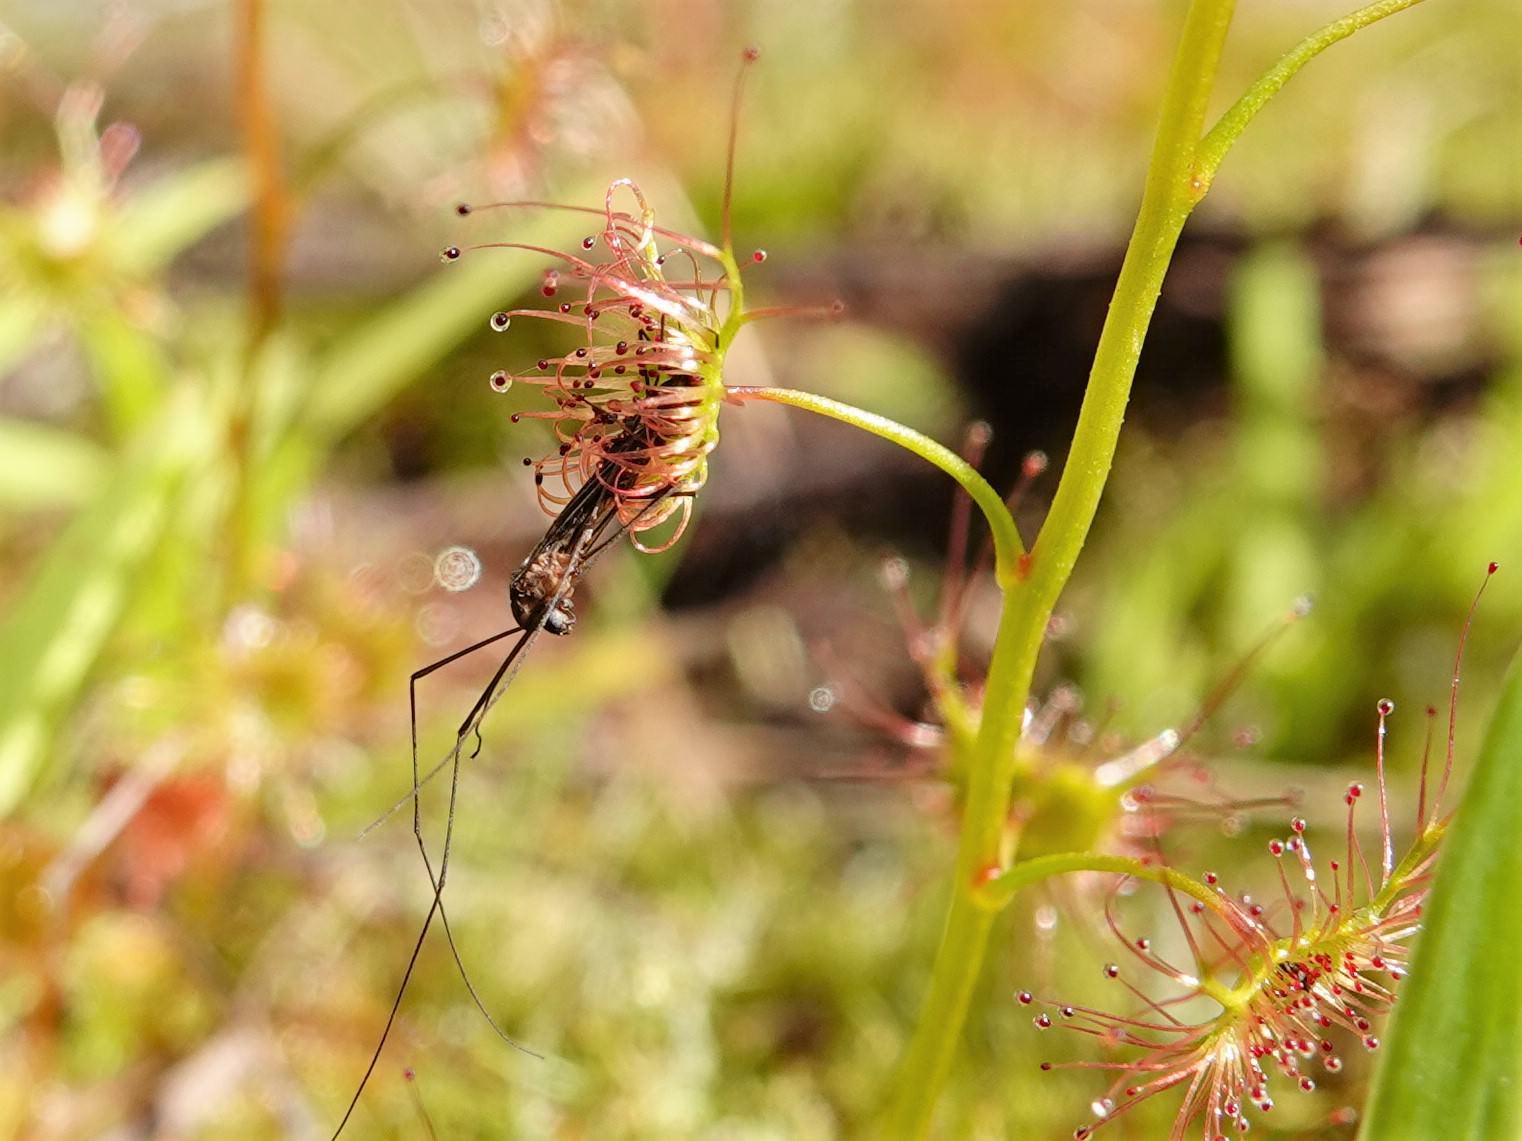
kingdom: Plantae
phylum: Tracheophyta
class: Magnoliopsida
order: Caryophyllales
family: Droseraceae
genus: Drosera
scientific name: Drosera peltata
